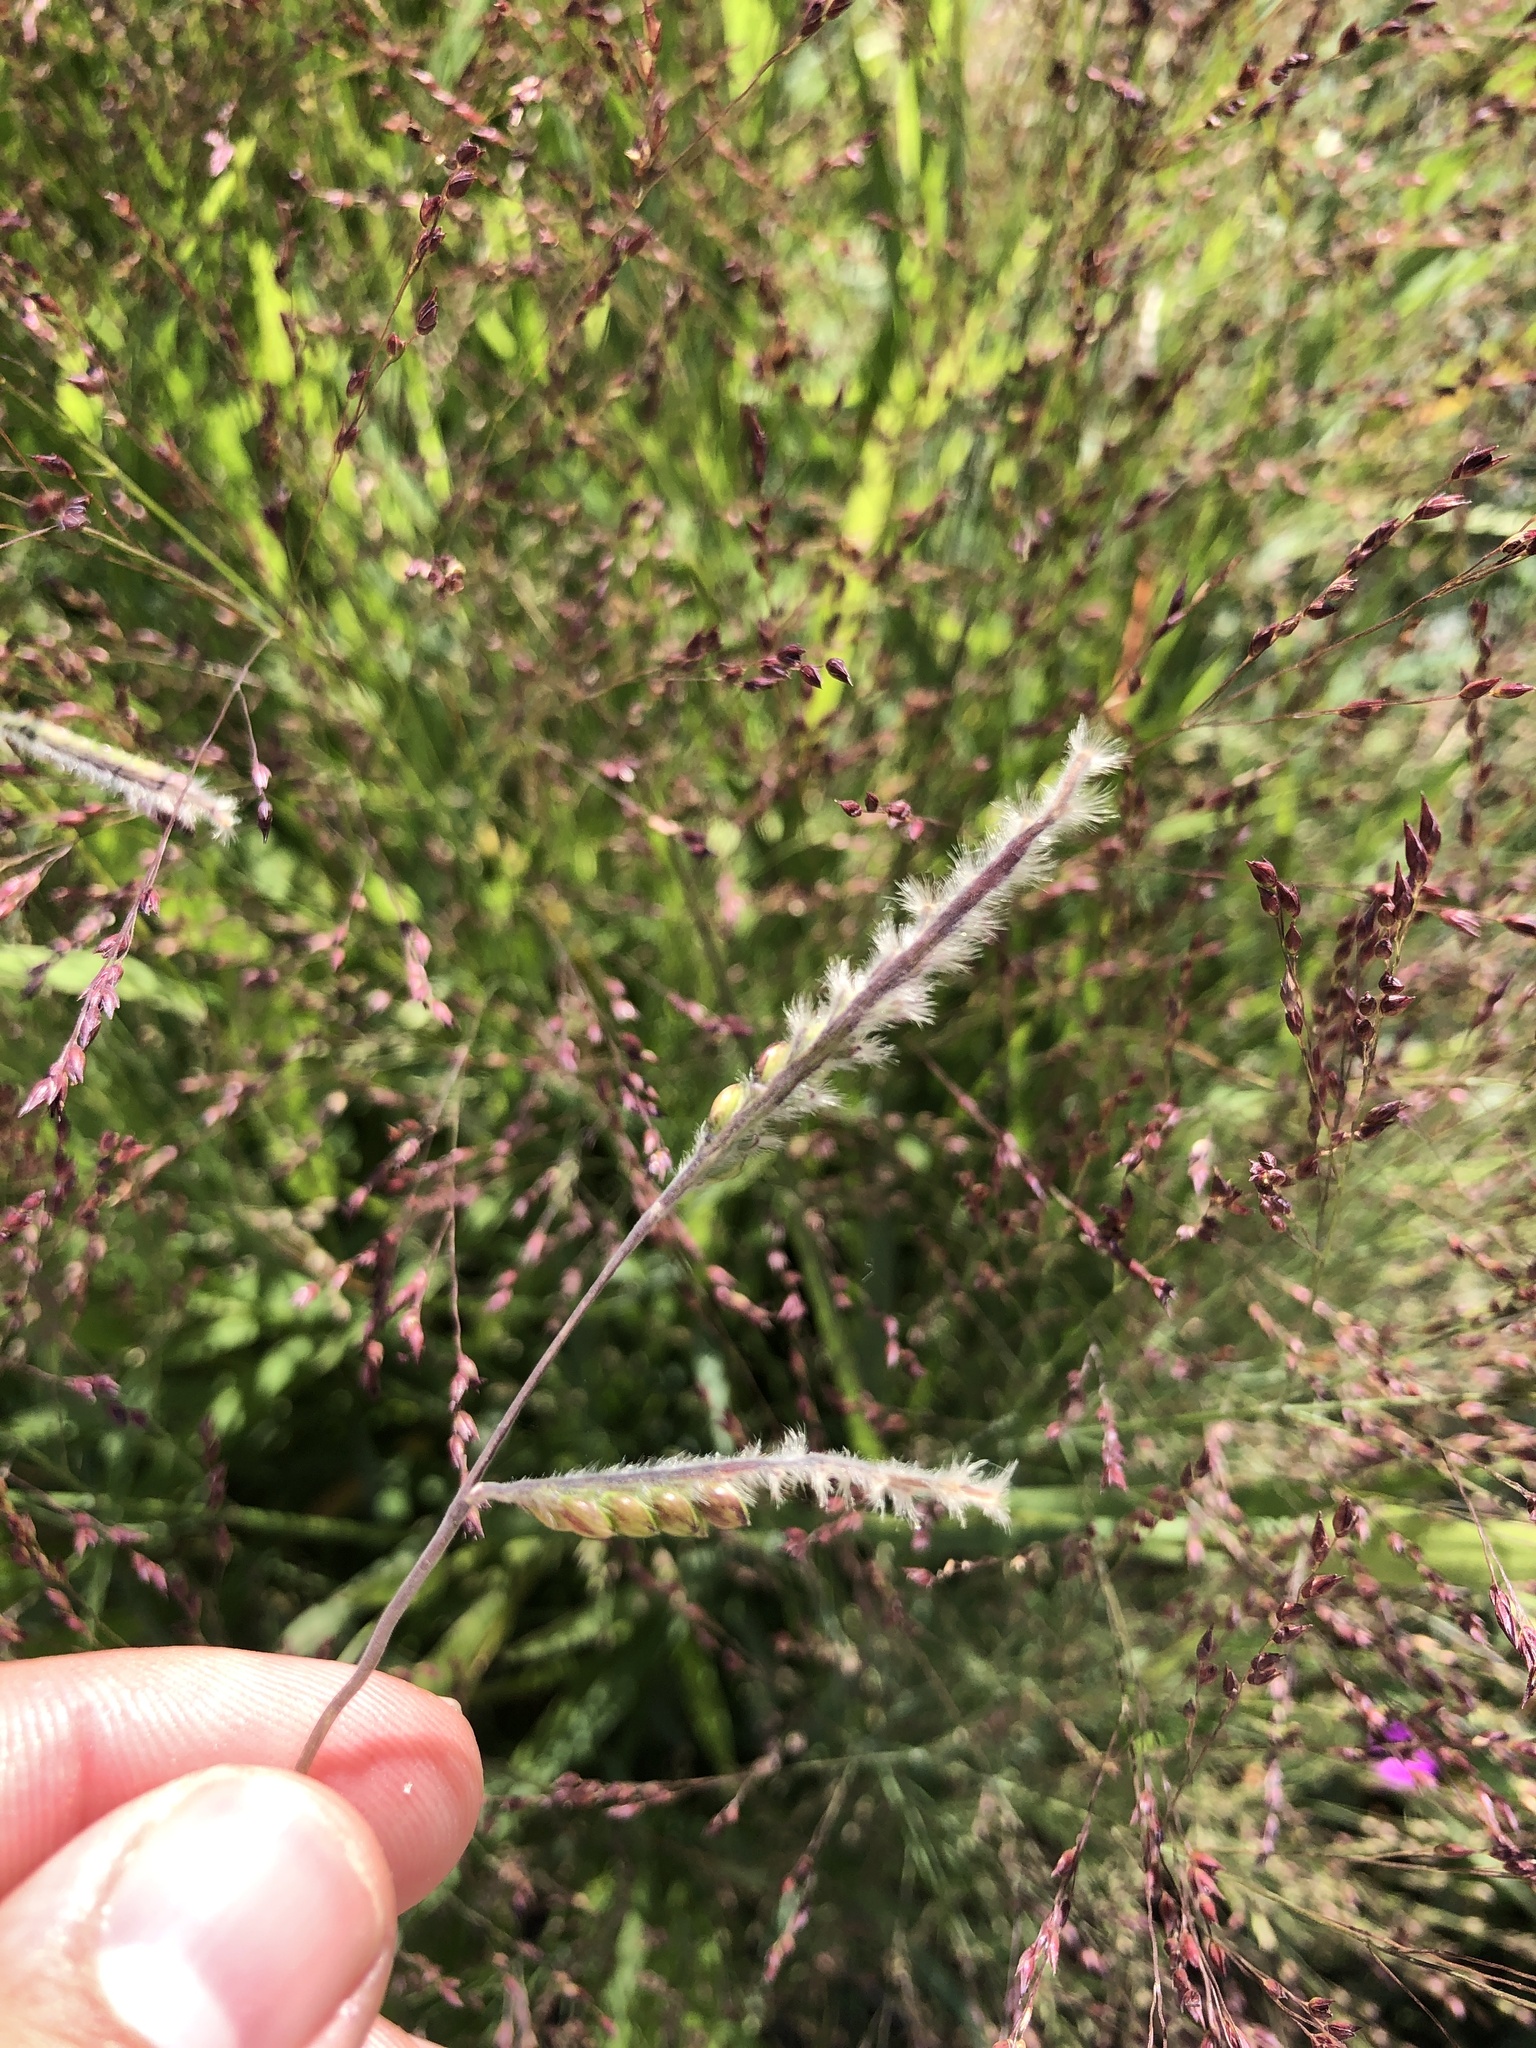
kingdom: Plantae
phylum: Tracheophyta
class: Liliopsida
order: Poales
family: Poaceae
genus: Eriochloa
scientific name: Eriochloa villosa
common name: Hairy cupgrass
